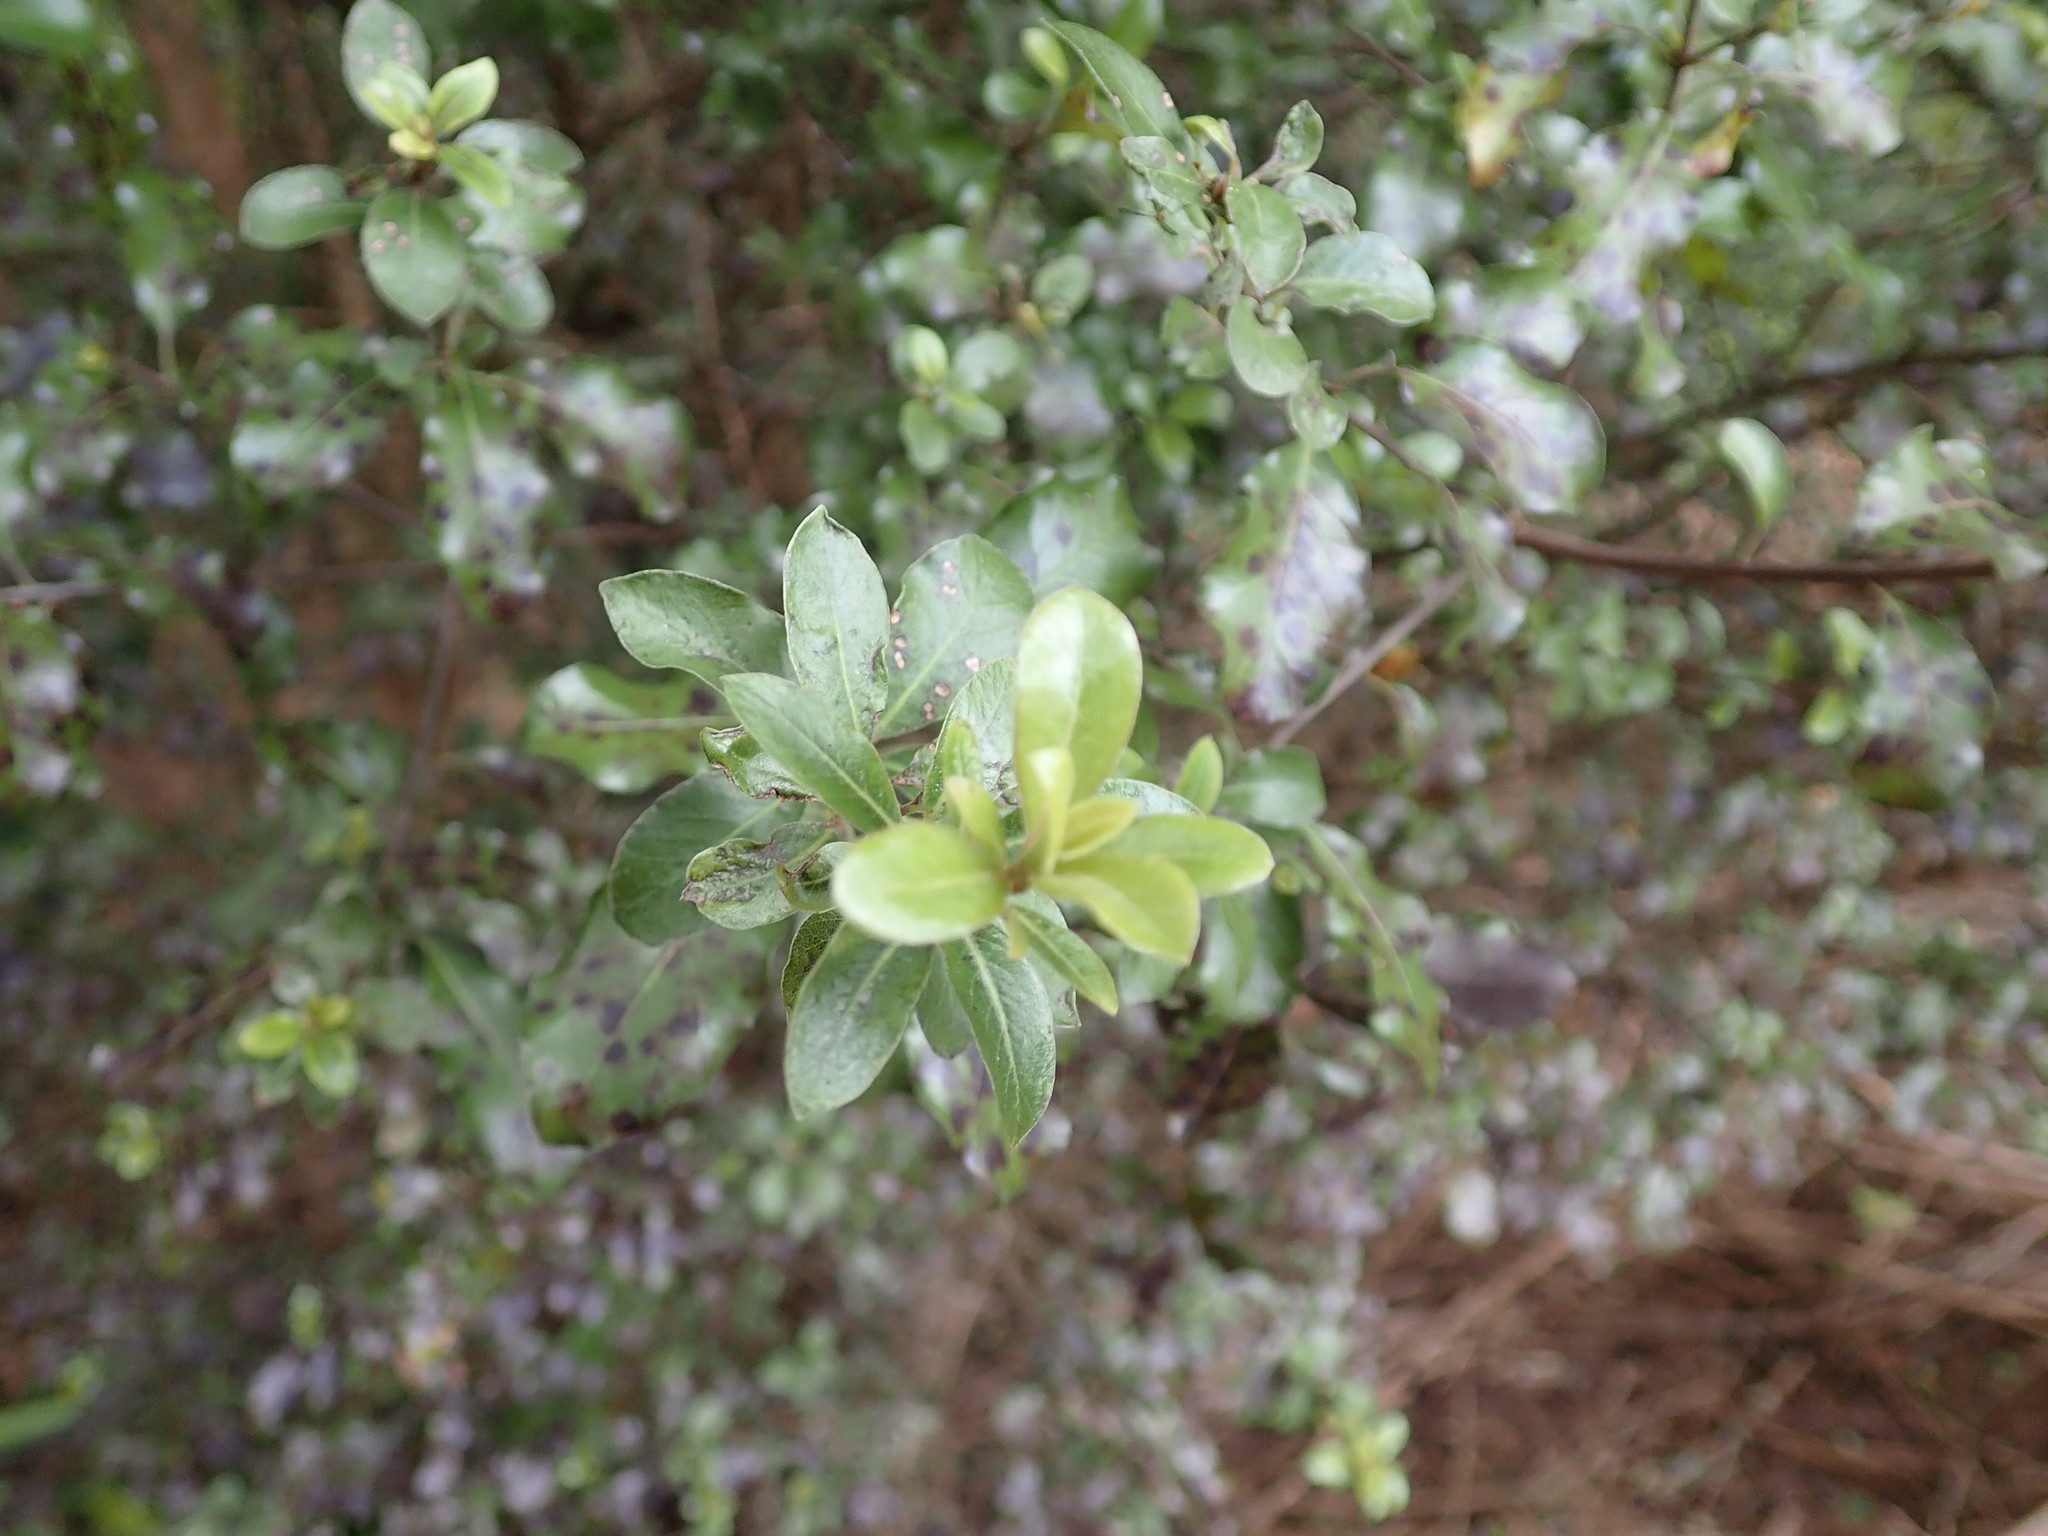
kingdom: Plantae
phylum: Tracheophyta
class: Magnoliopsida
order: Apiales
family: Pittosporaceae
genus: Pittosporum
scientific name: Pittosporum tenuifolium
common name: Kohuhu
